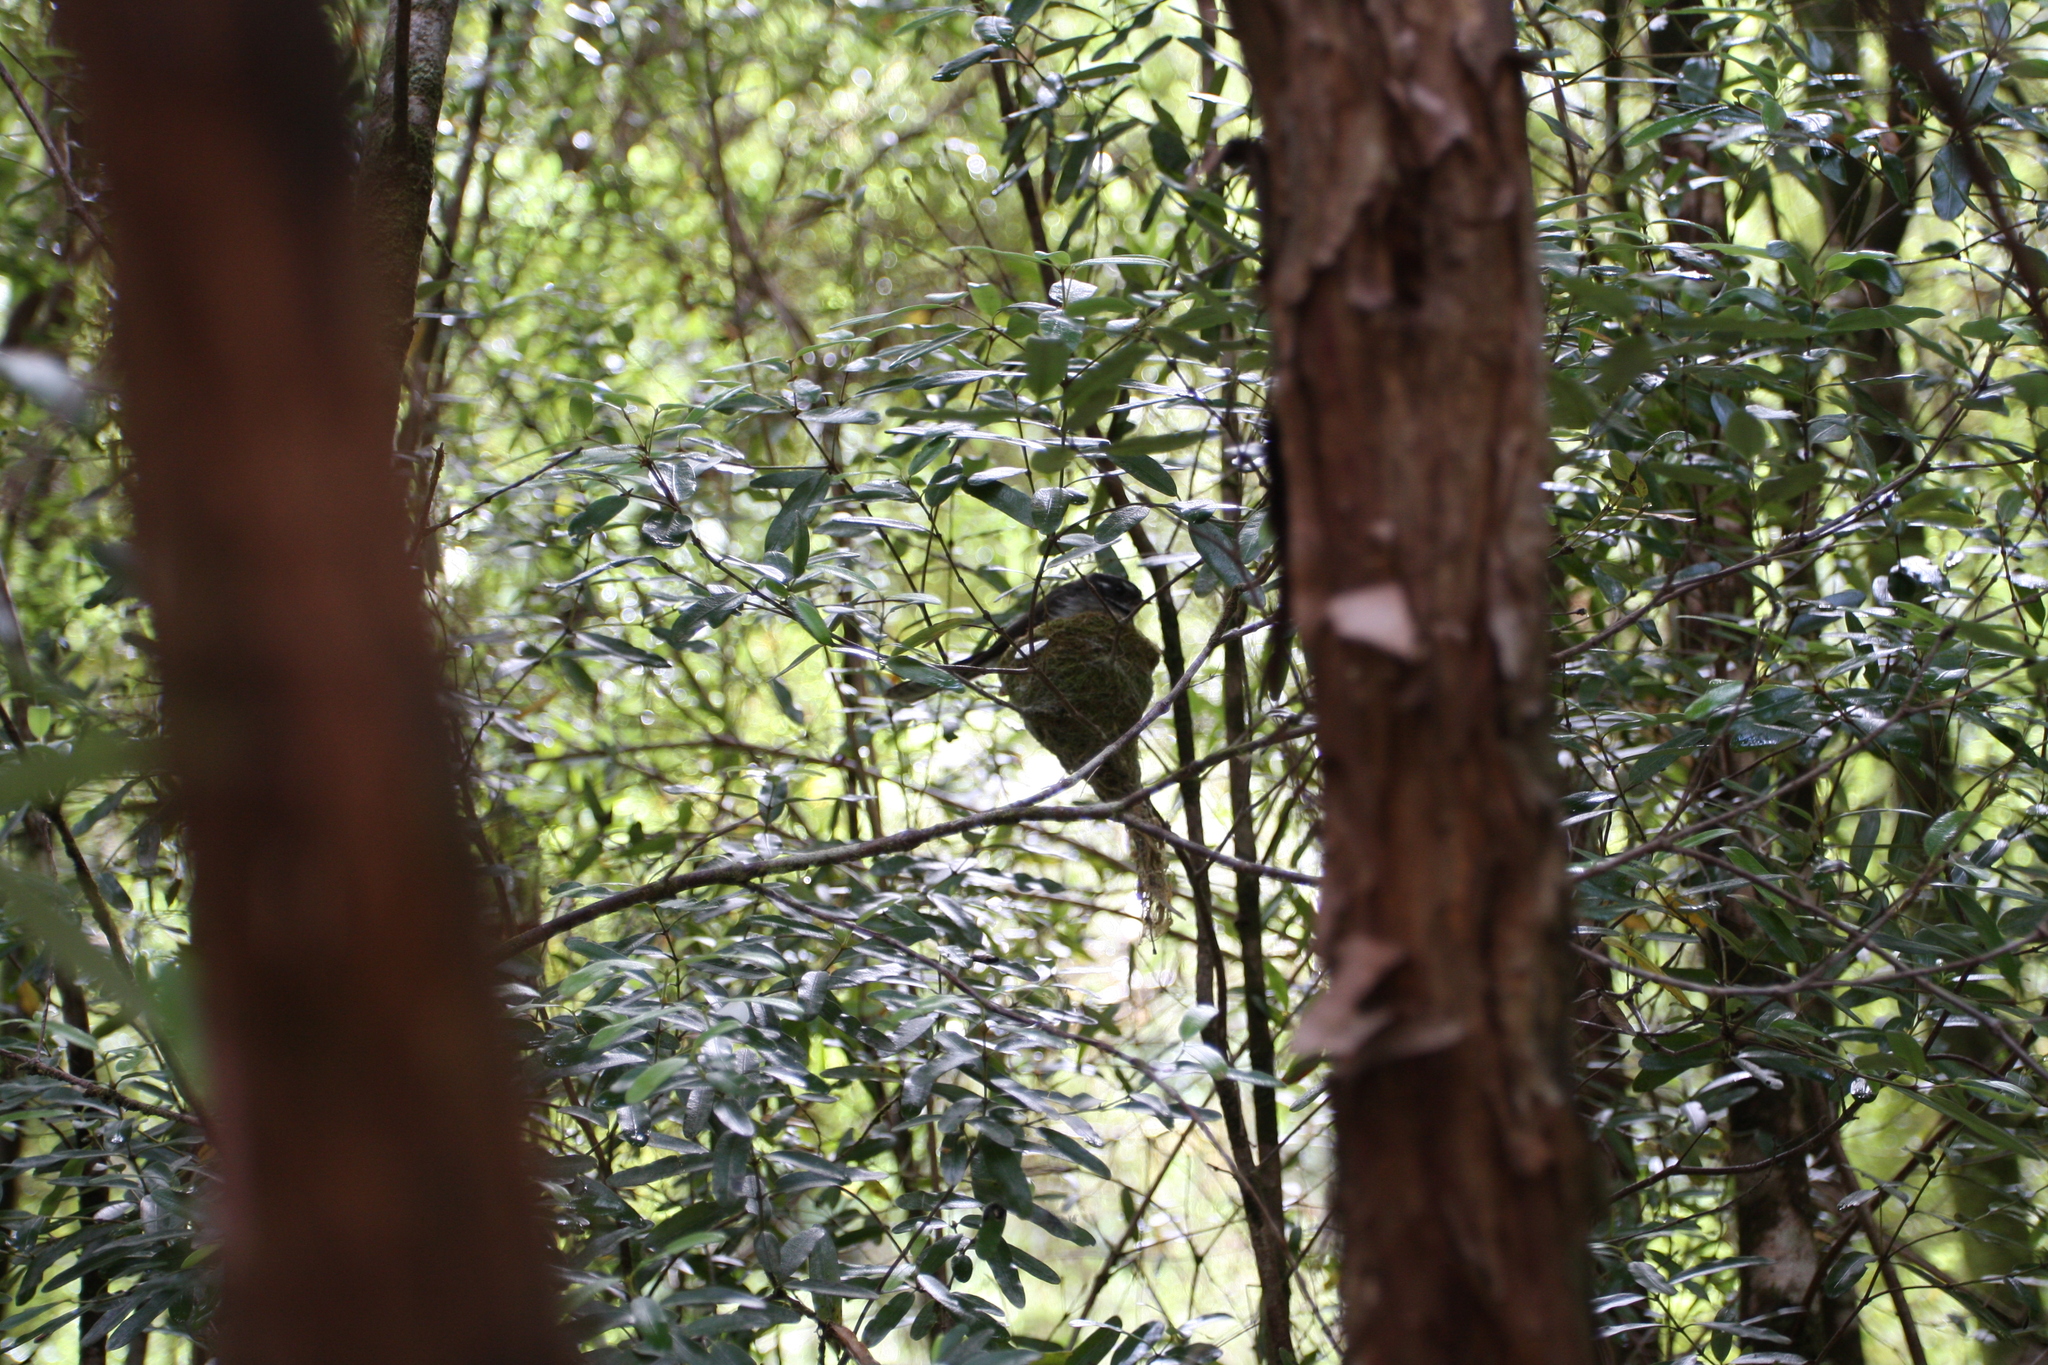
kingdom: Animalia
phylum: Chordata
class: Aves
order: Passeriformes
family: Rhipiduridae
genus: Rhipidura
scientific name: Rhipidura albiscapa
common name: Grey fantail
